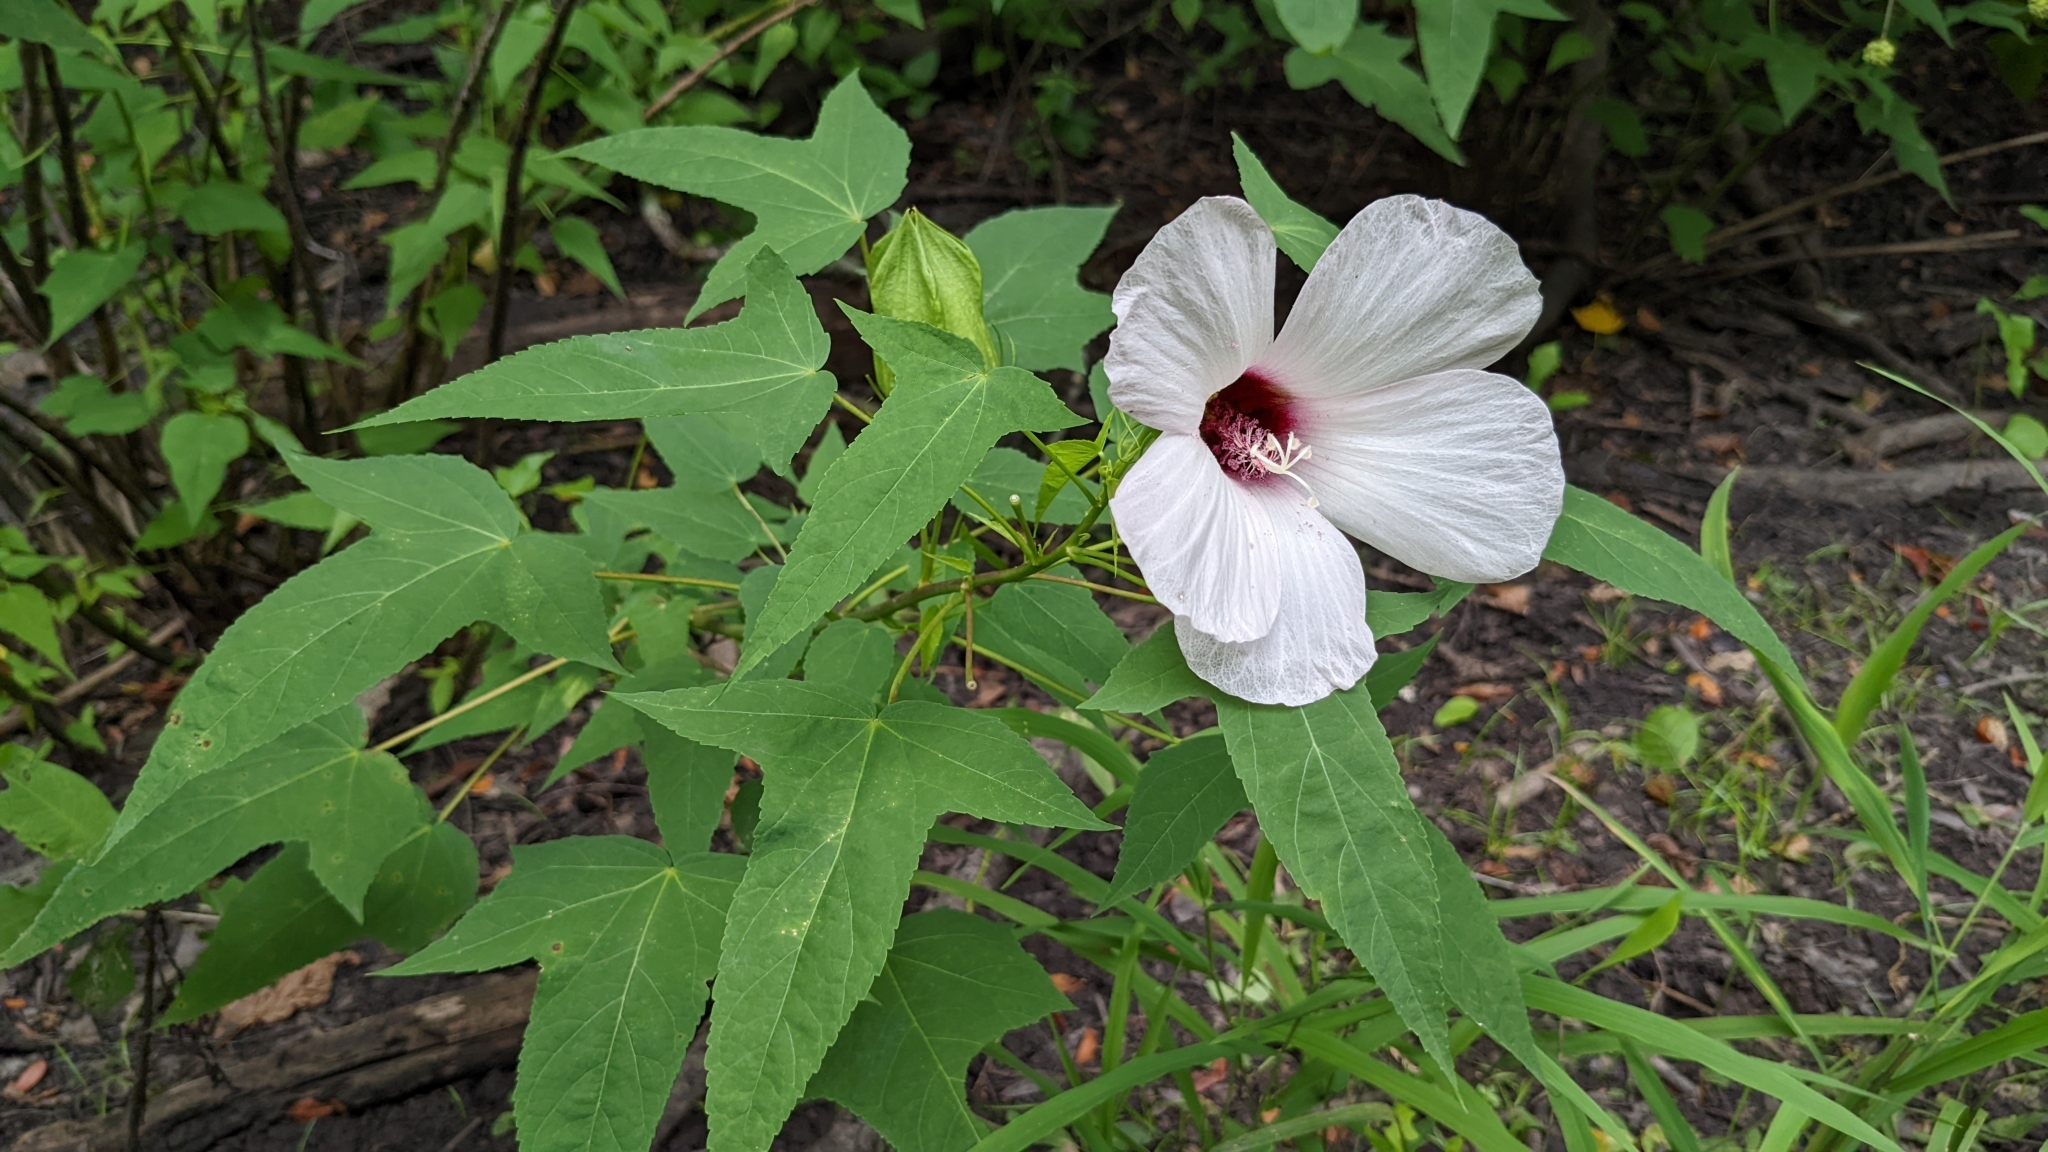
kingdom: Plantae
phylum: Tracheophyta
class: Magnoliopsida
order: Malvales
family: Malvaceae
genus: Hibiscus
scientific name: Hibiscus laevis
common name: Scarlet rose-mallow
